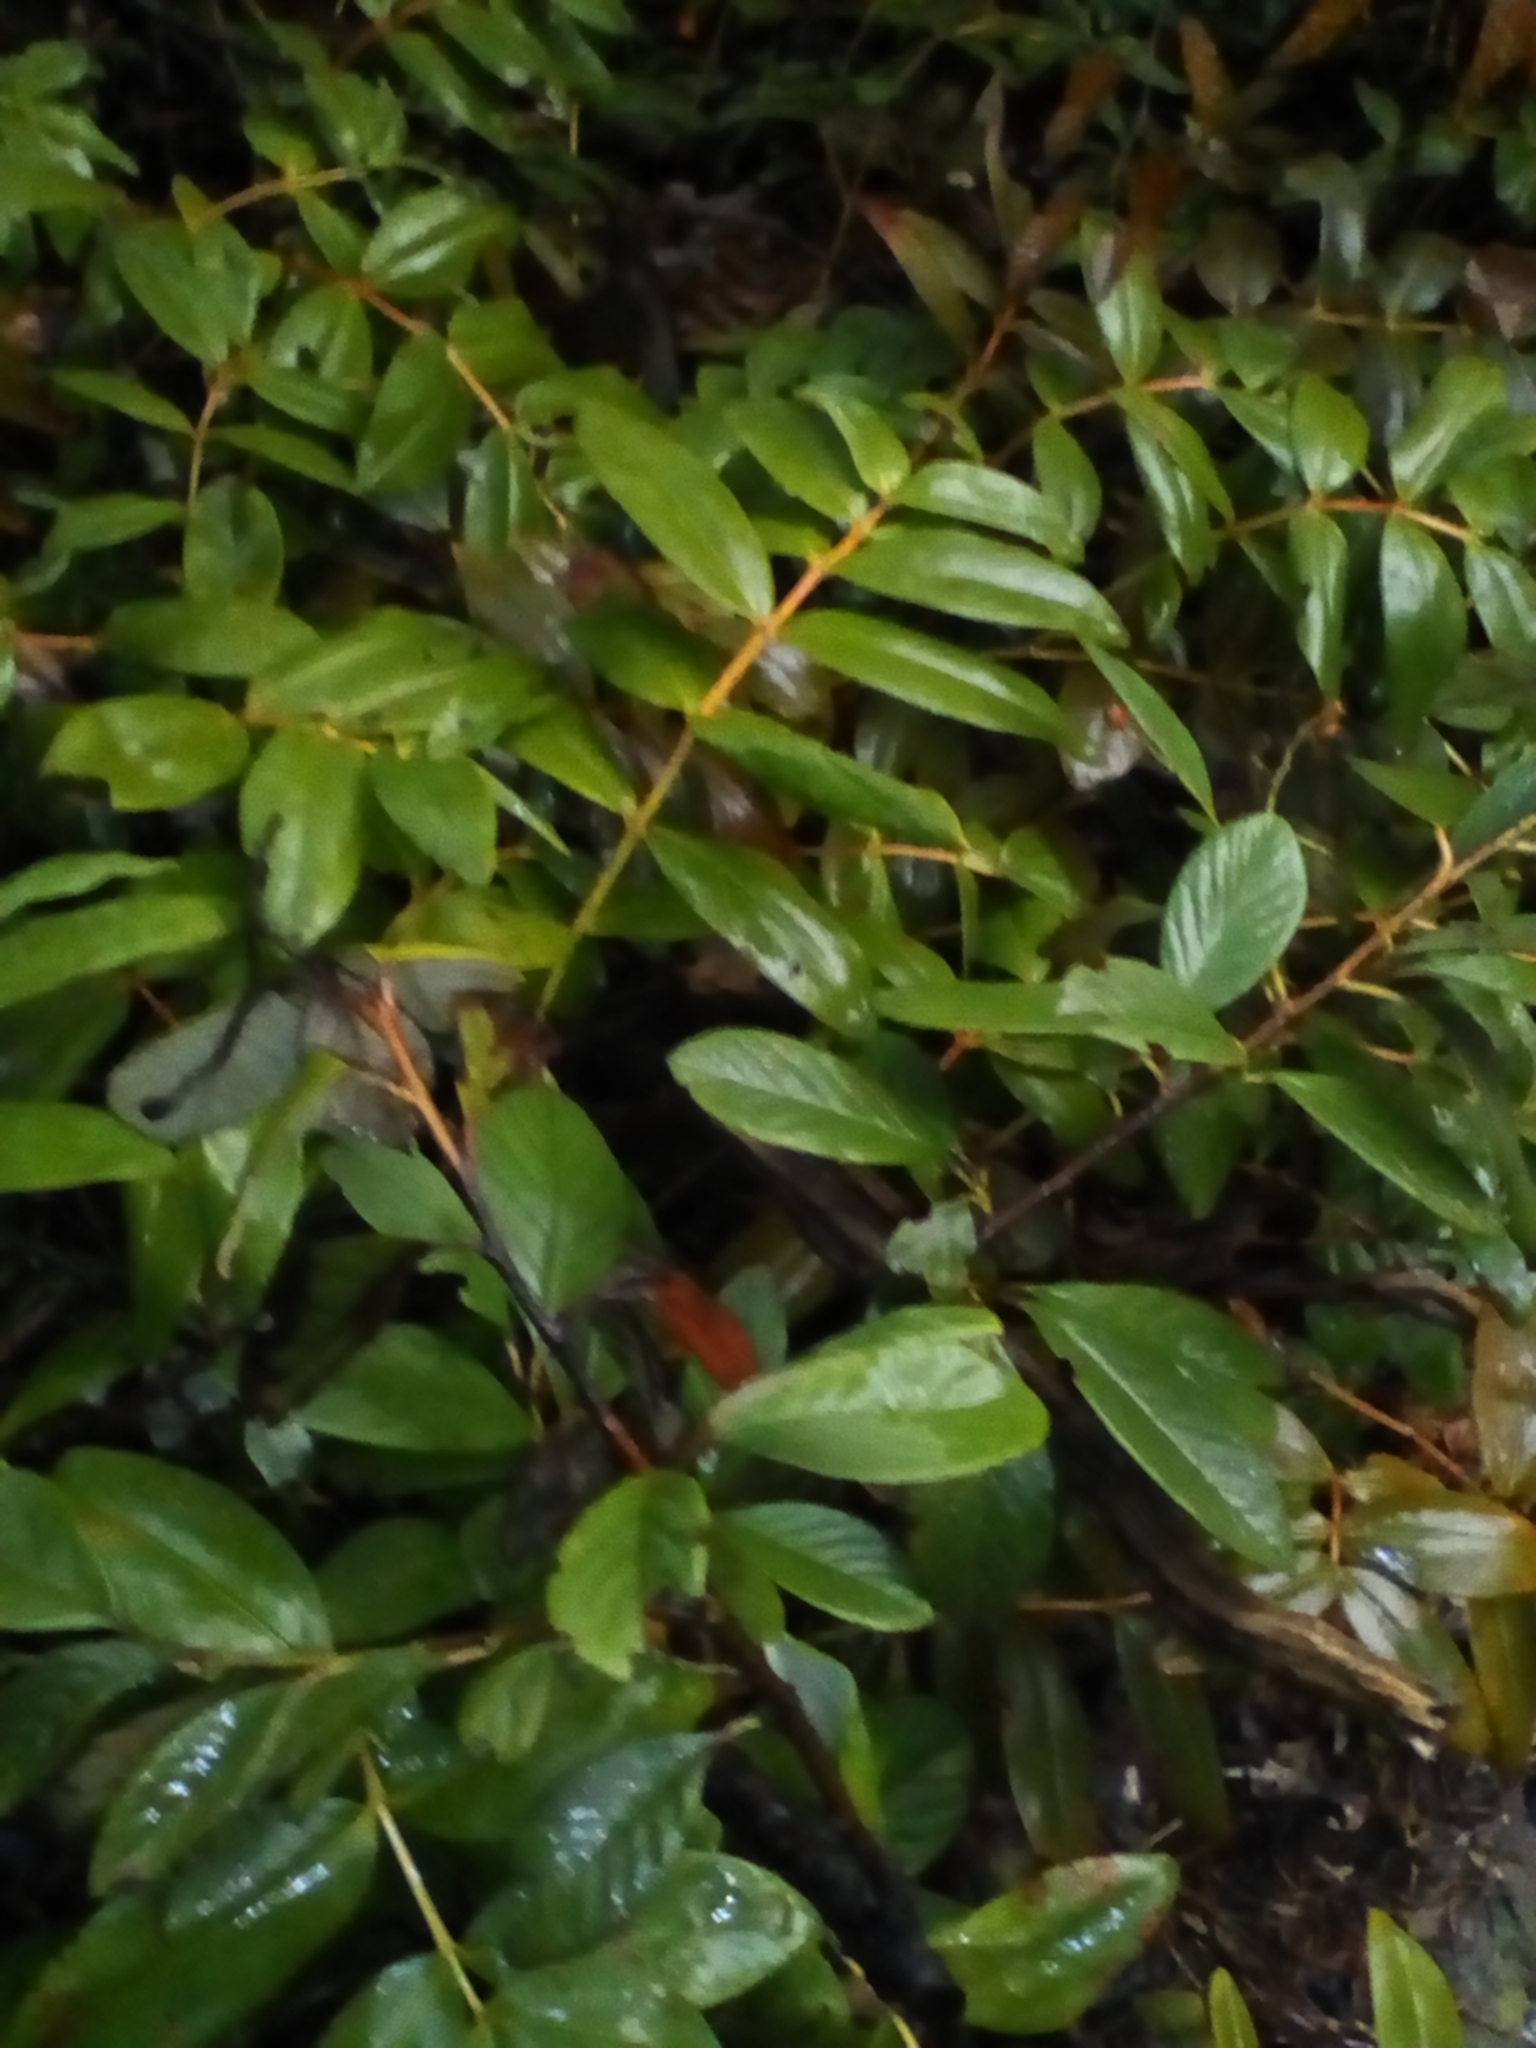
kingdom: Plantae
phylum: Tracheophyta
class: Magnoliopsida
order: Malpighiales
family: Hypericaceae
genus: Hypericum
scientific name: Hypericum calycinum
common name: Rose-of-sharon
